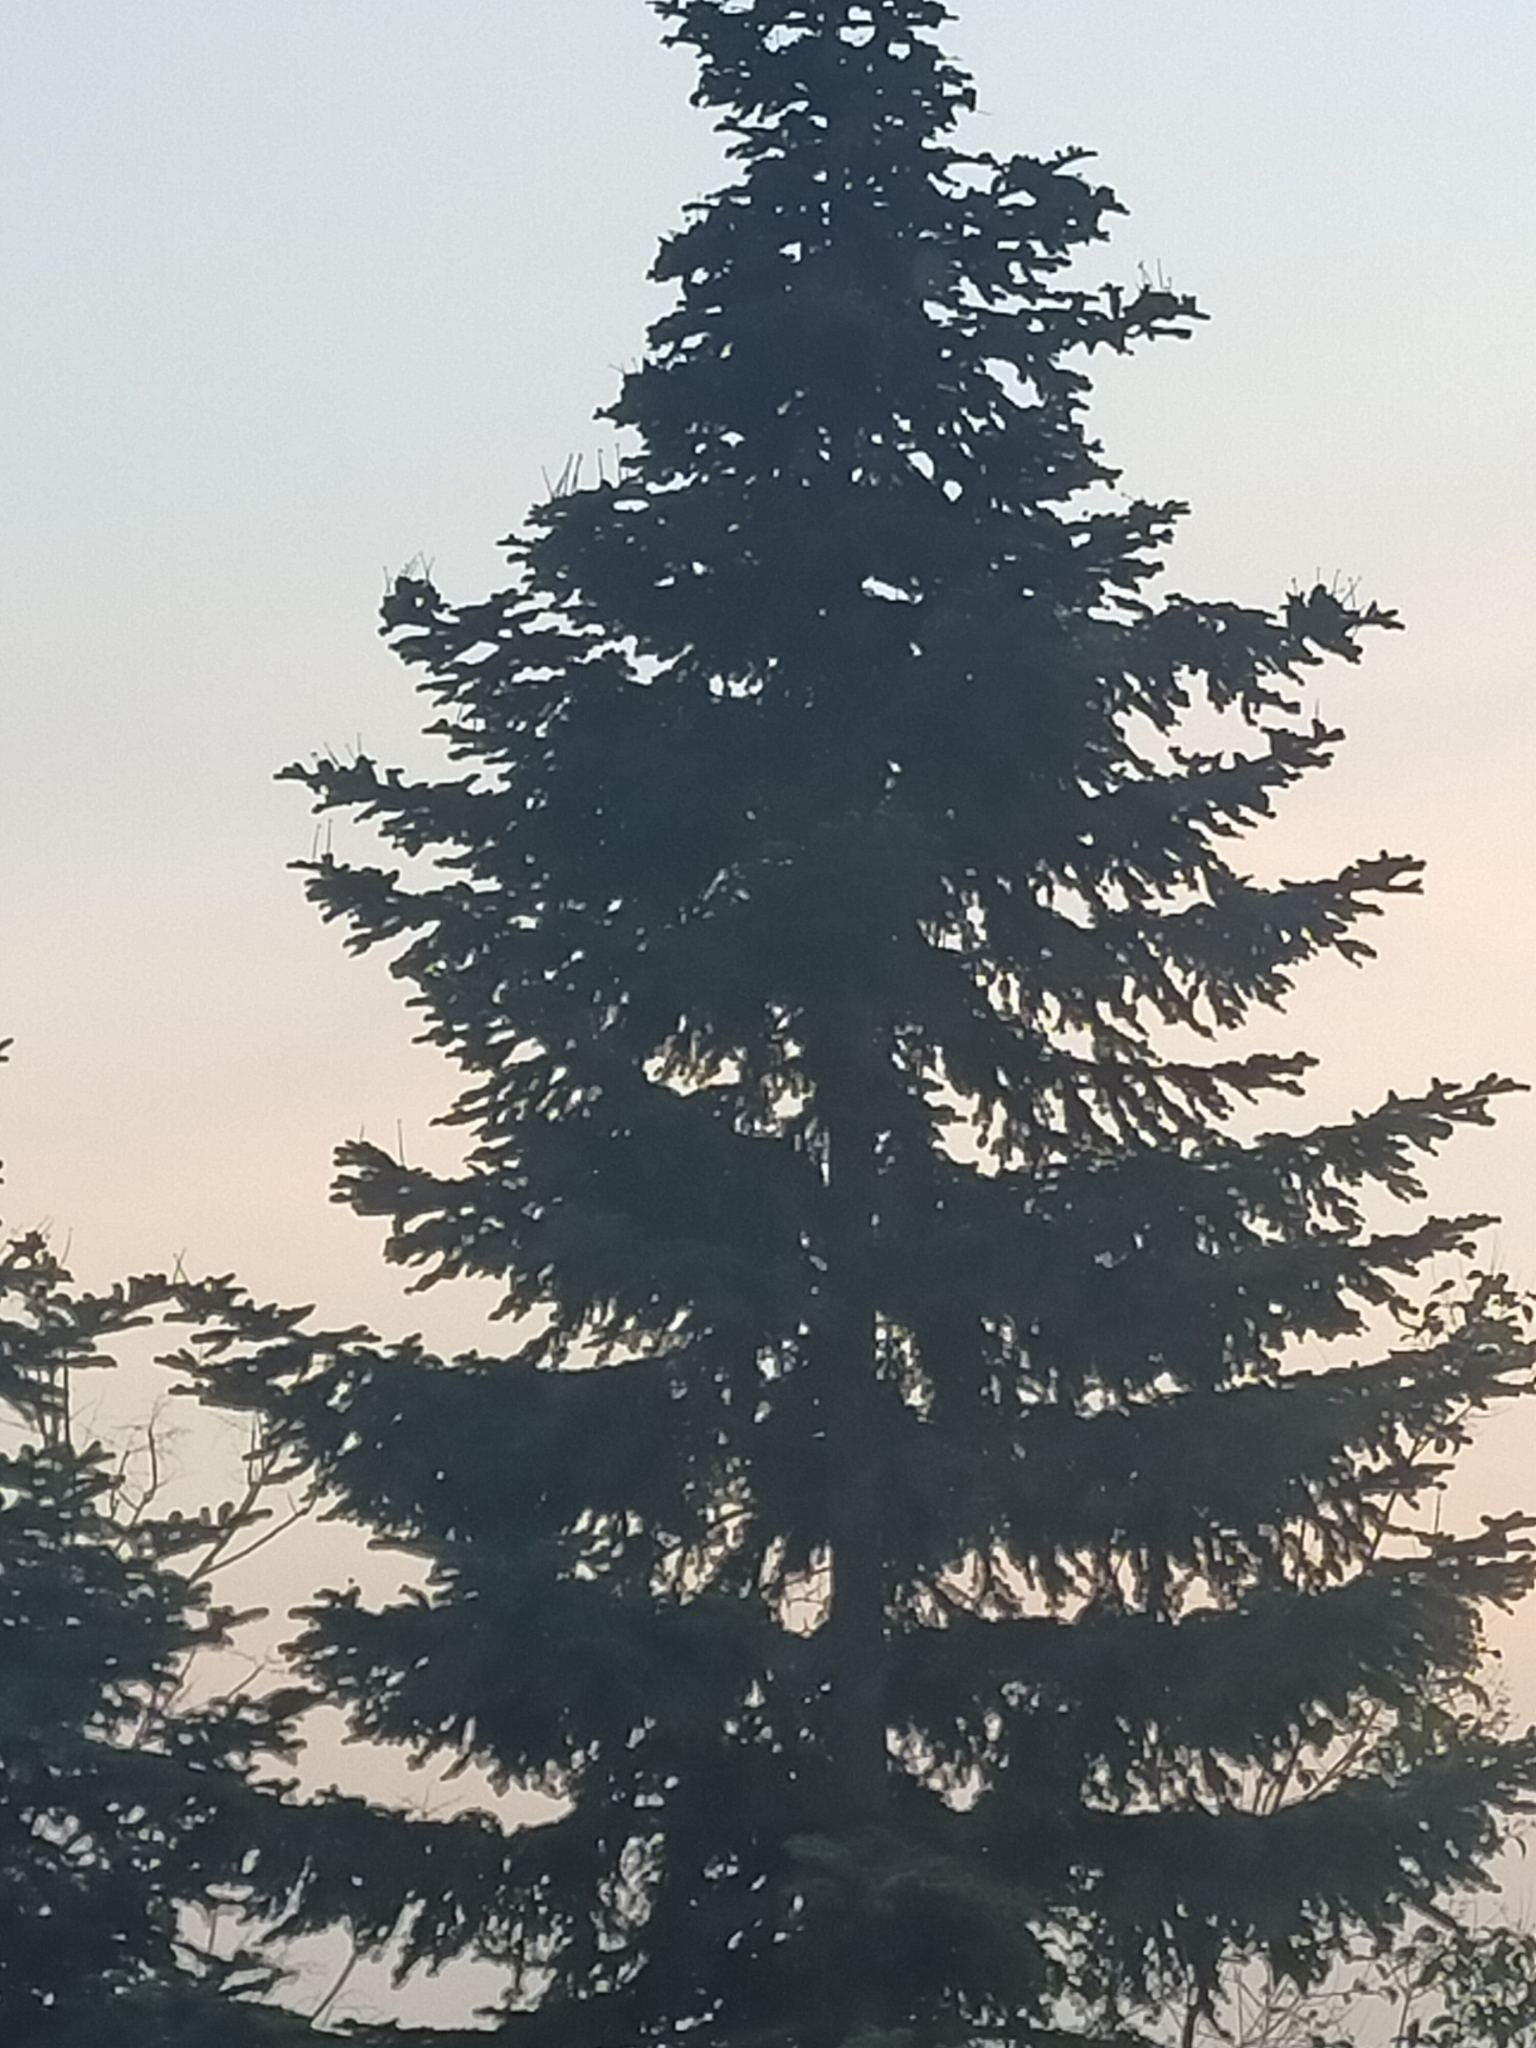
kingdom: Plantae
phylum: Tracheophyta
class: Pinopsida
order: Pinales
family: Pinaceae
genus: Abies
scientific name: Abies
